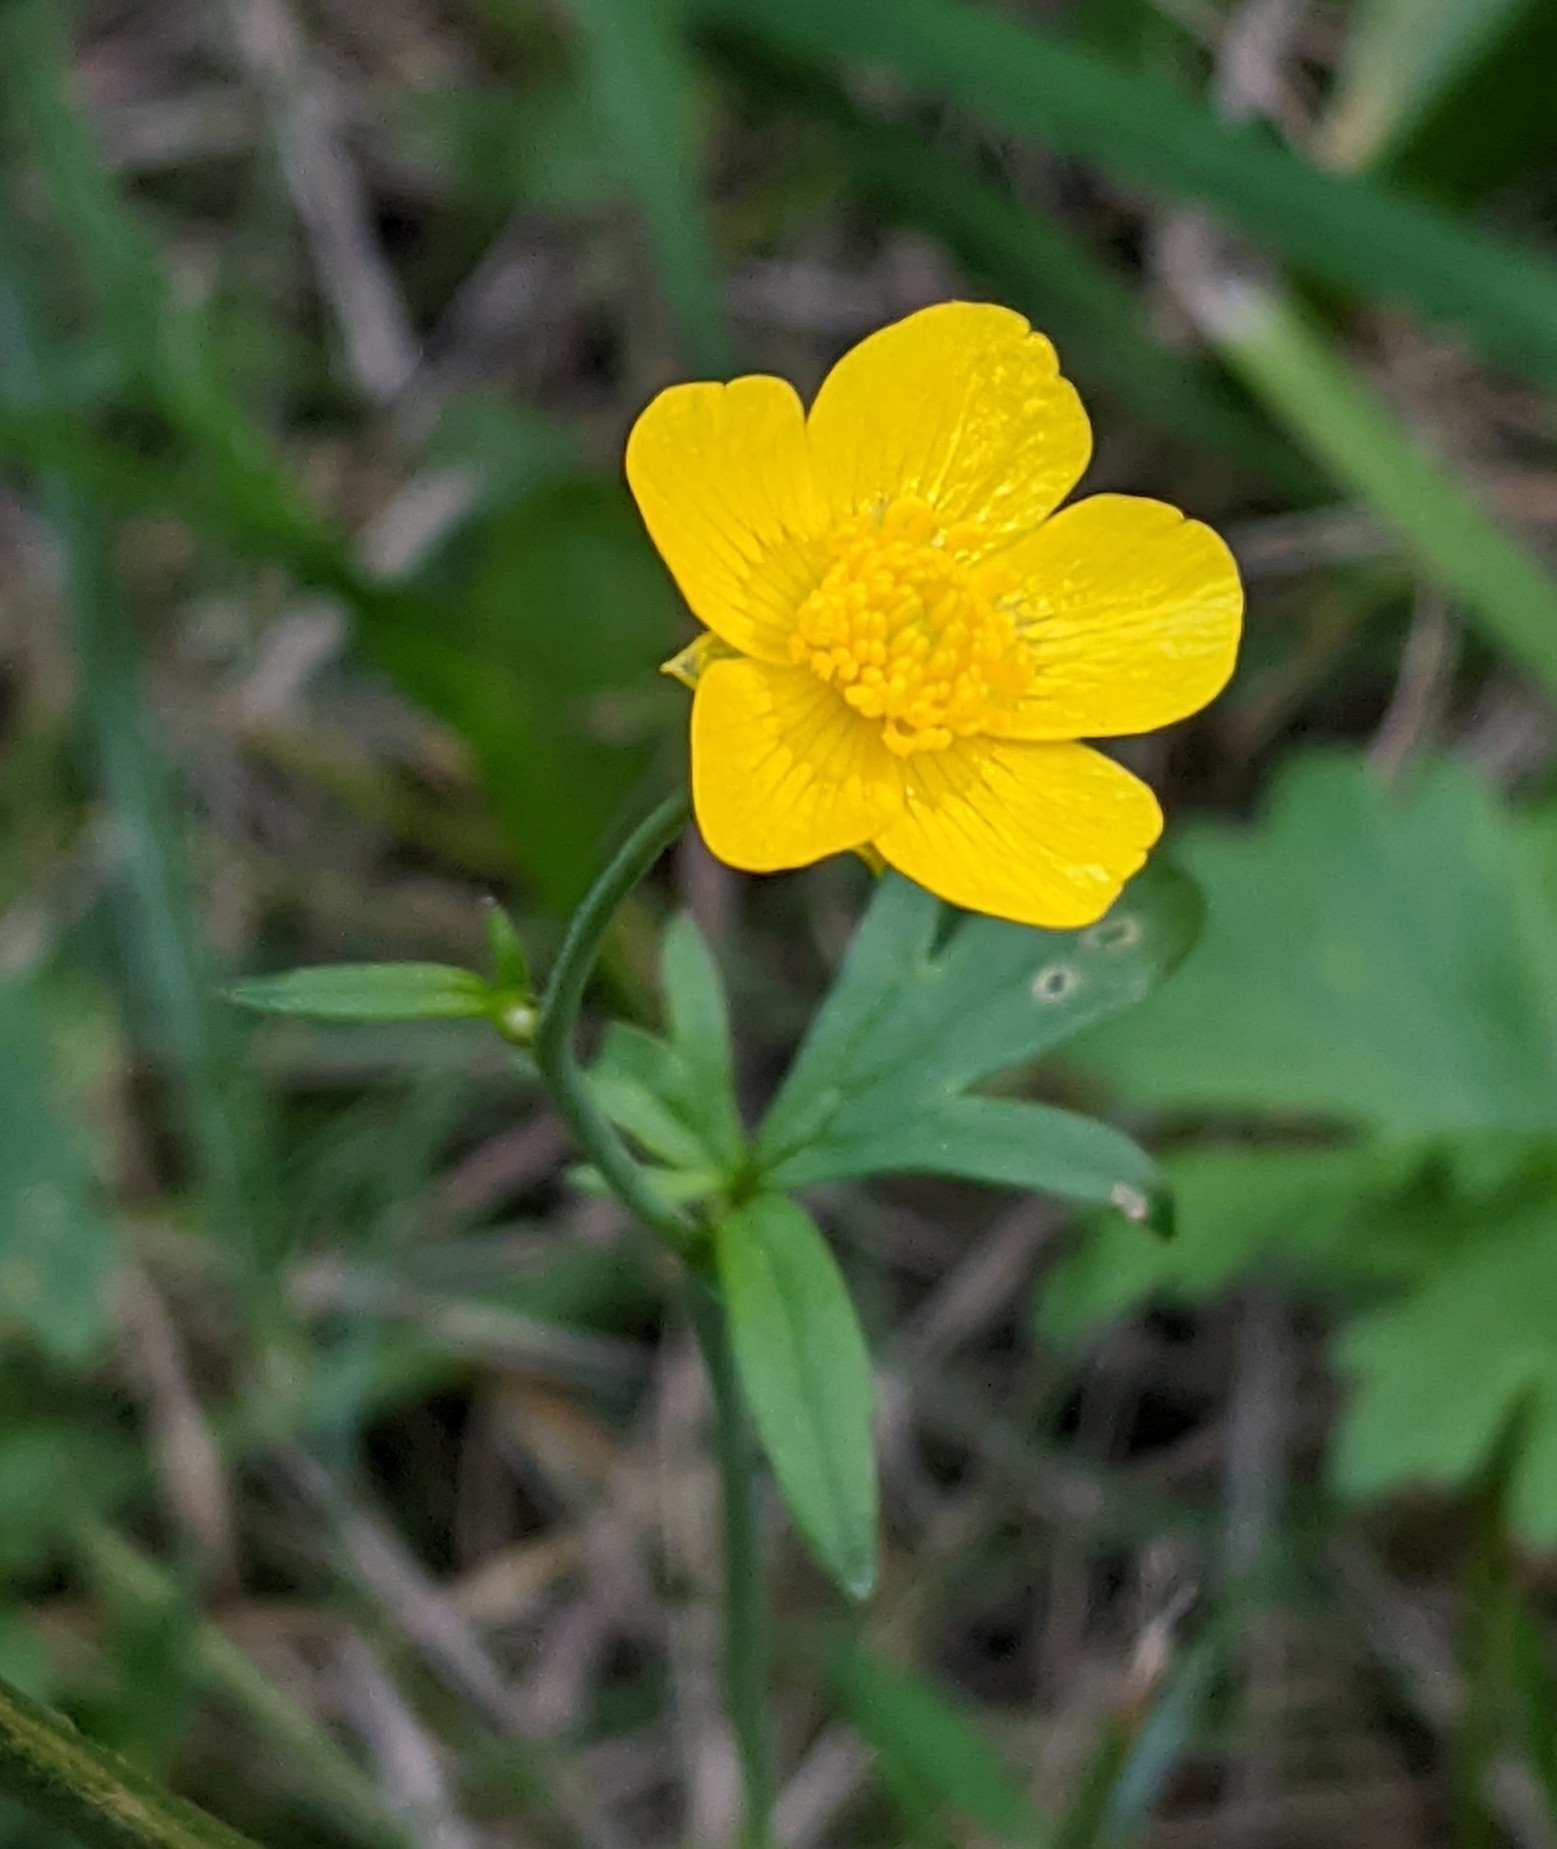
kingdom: Plantae
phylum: Tracheophyta
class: Magnoliopsida
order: Ranunculales
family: Ranunculaceae
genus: Ranunculus
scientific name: Ranunculus acris
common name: Meadow buttercup
